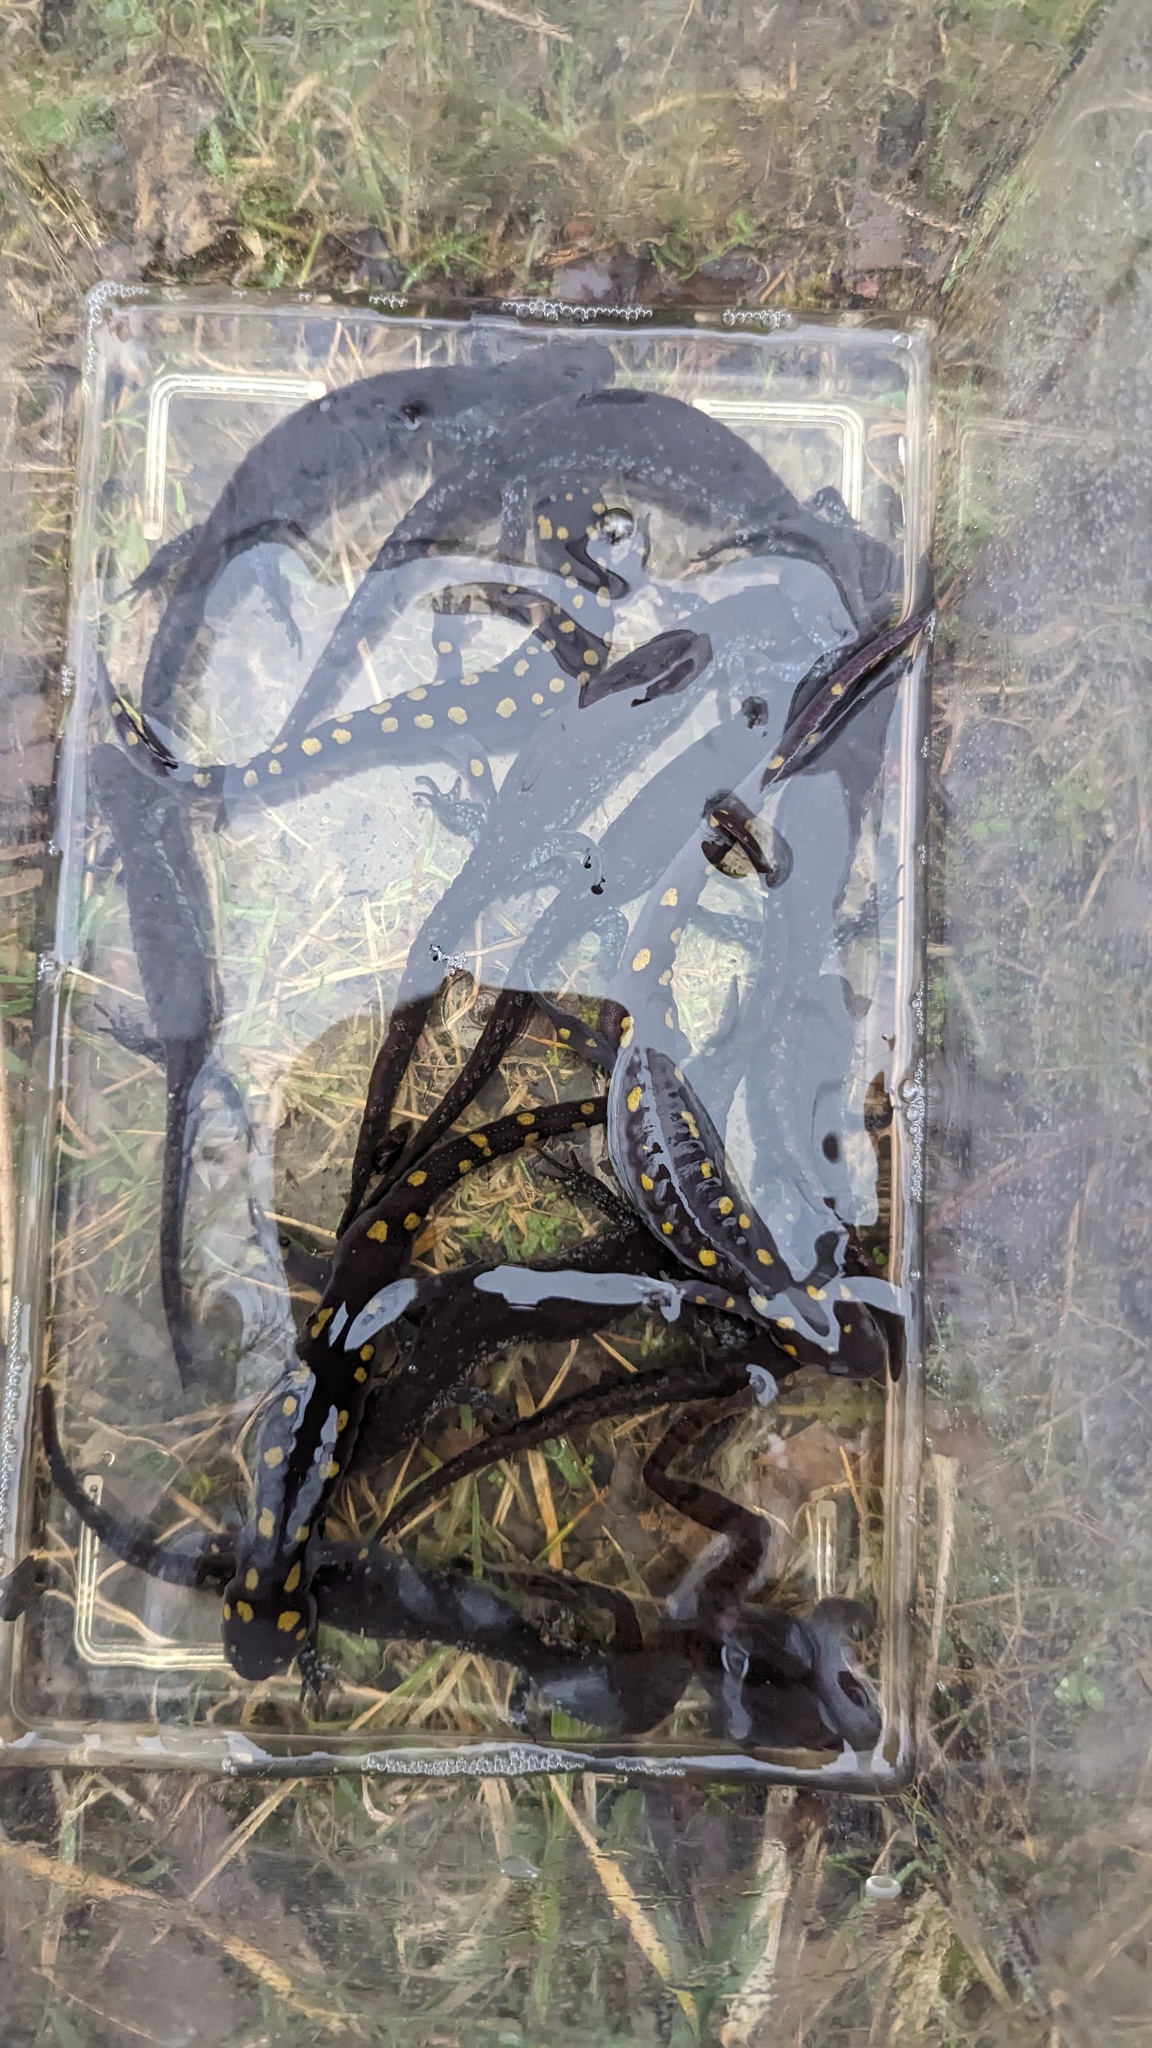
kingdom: Animalia
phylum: Chordata
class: Amphibia
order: Caudata
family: Ambystomatidae
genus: Ambystoma
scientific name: Ambystoma maculatum
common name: Spotted salamander
